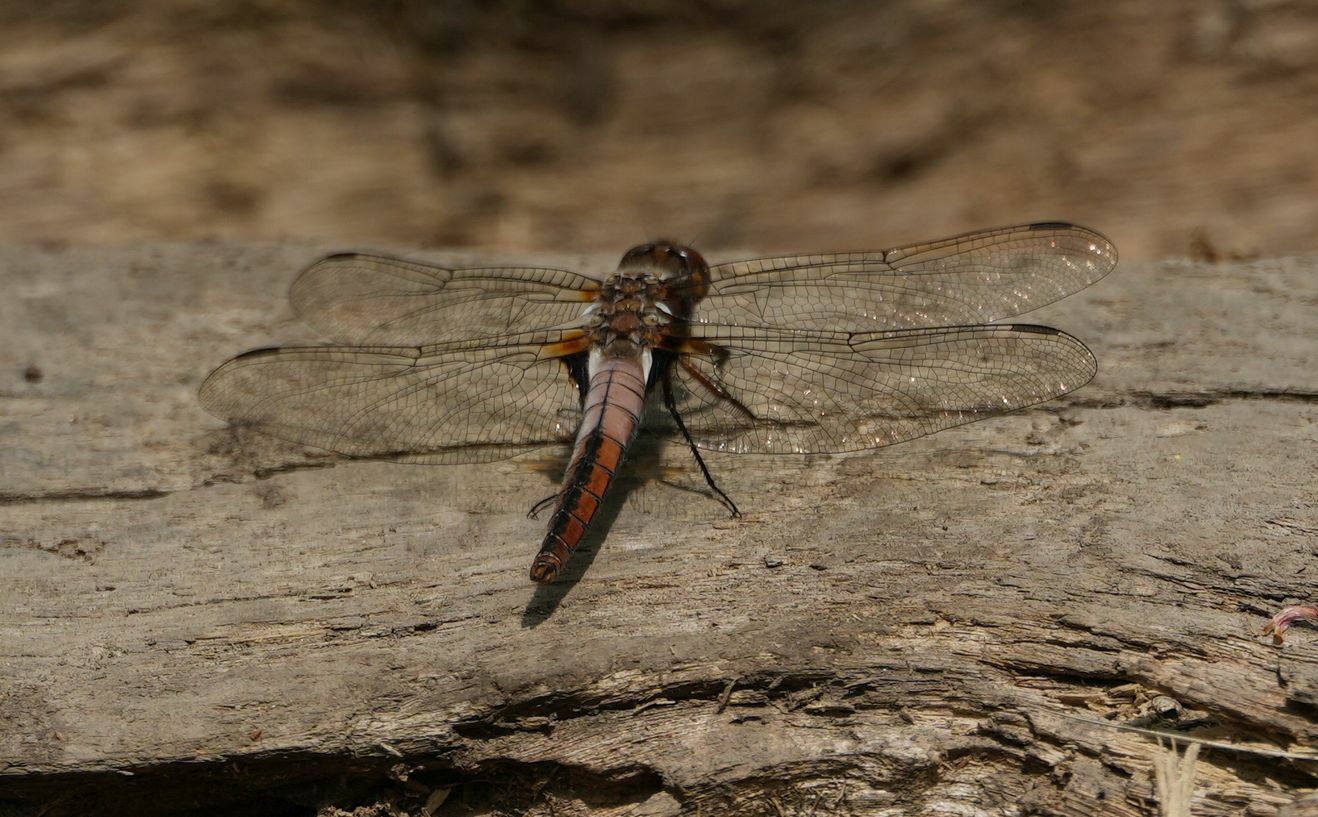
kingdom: Animalia
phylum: Arthropoda
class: Insecta
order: Odonata
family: Libellulidae
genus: Ladona
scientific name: Ladona julia
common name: Chalk-fronted corporal
